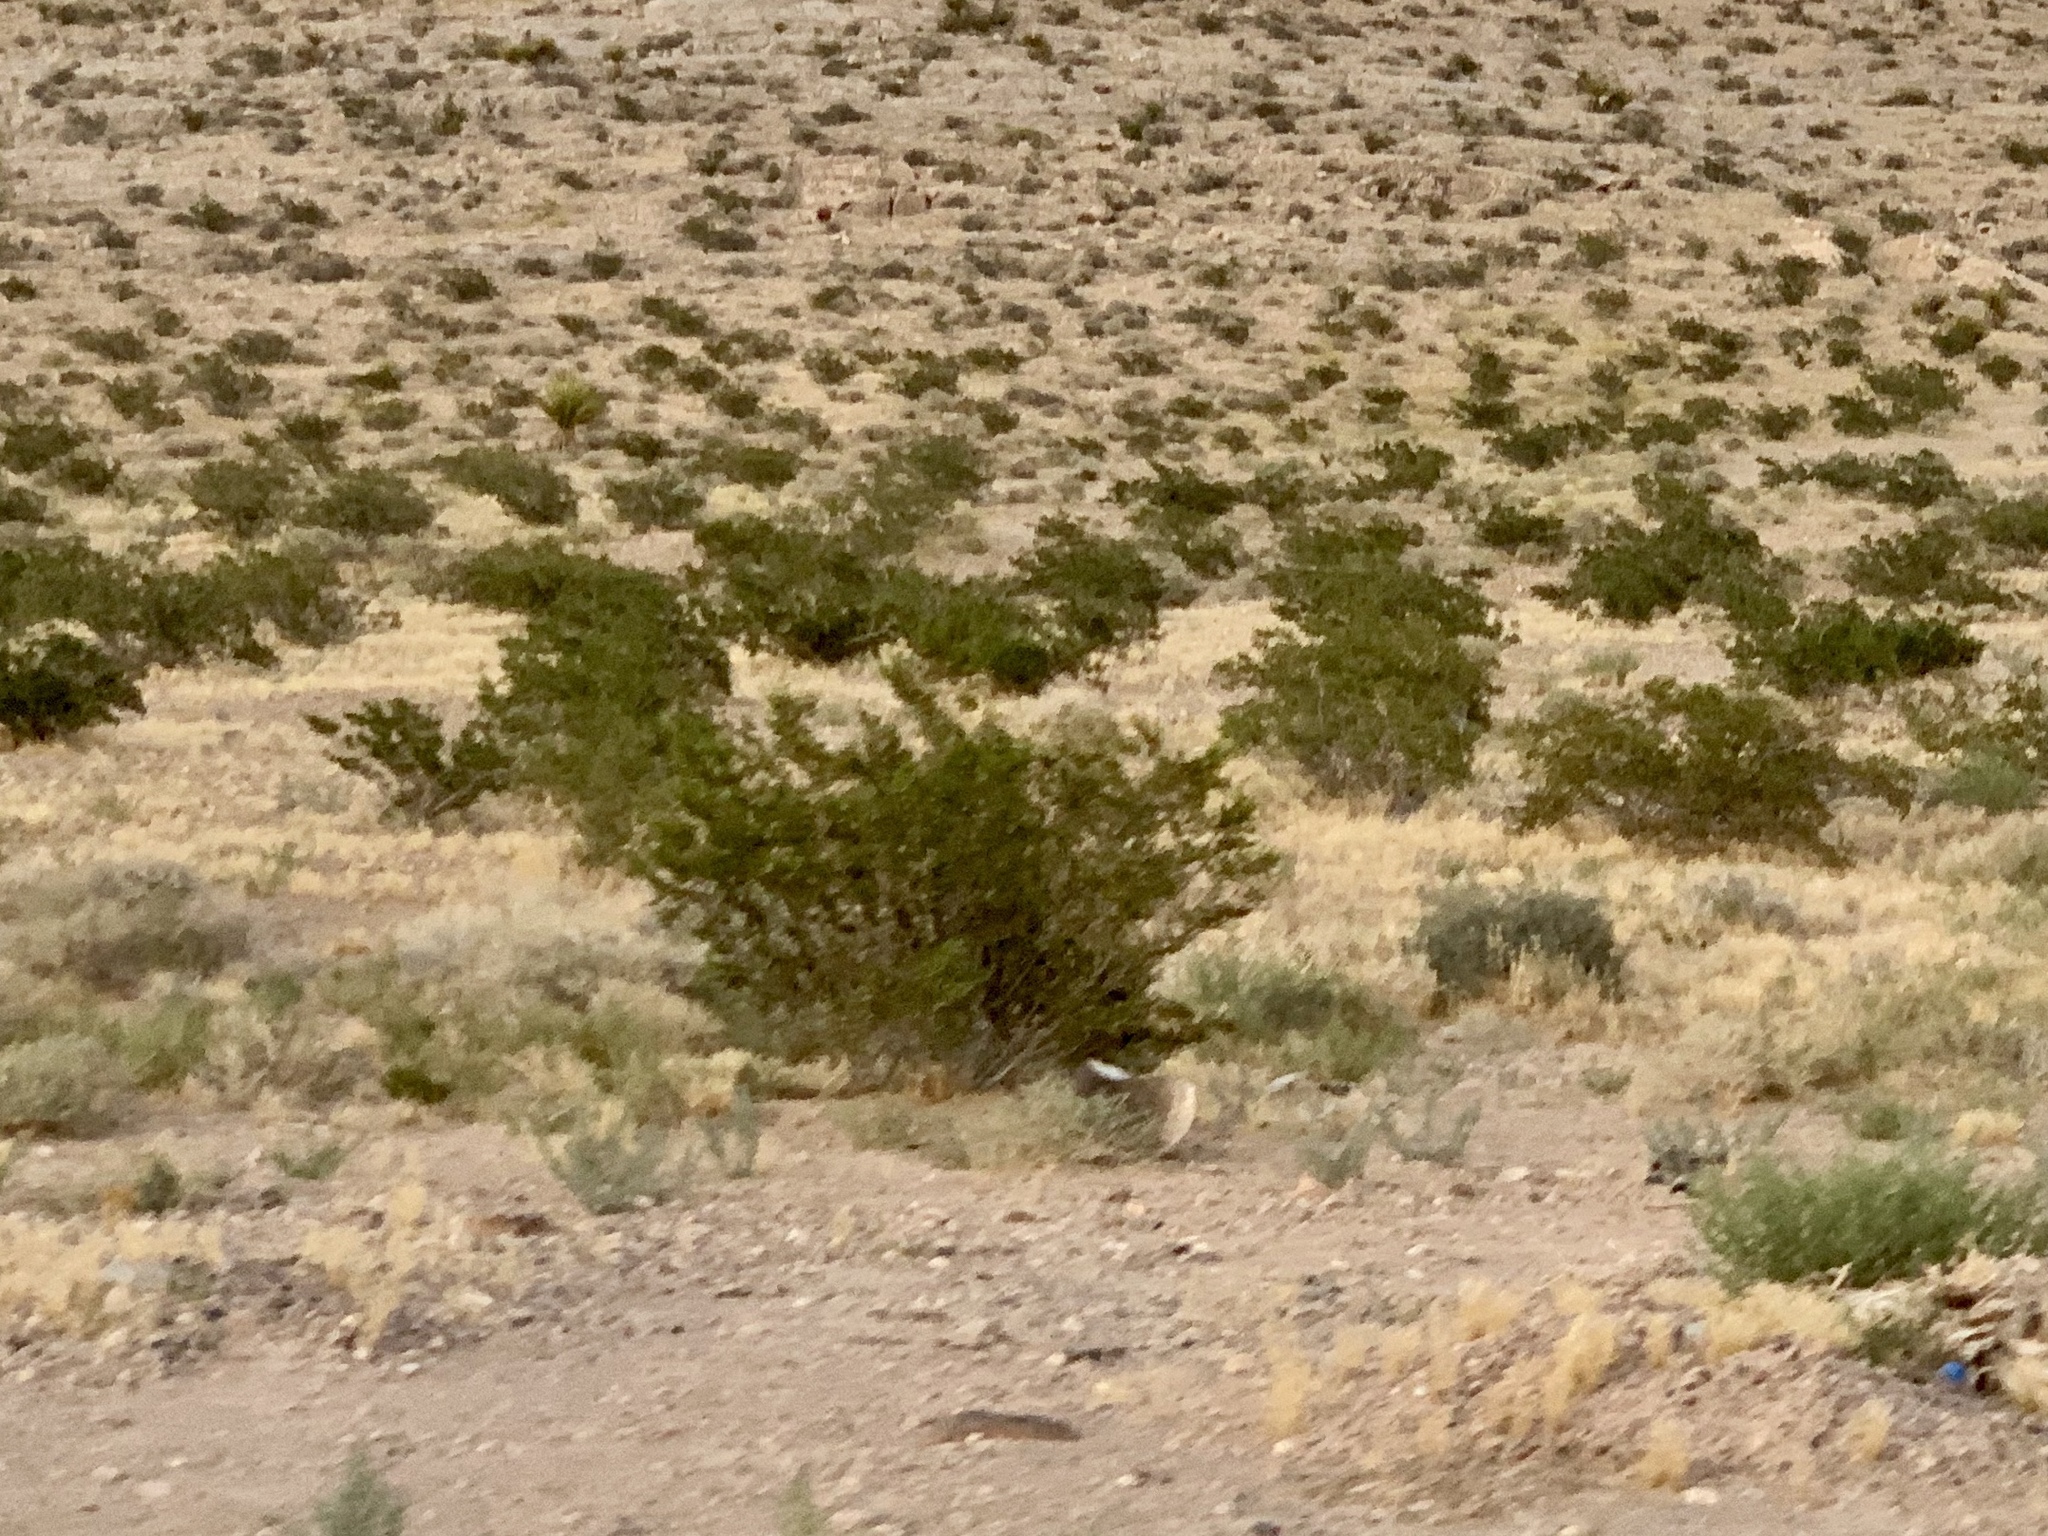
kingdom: Plantae
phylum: Tracheophyta
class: Magnoliopsida
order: Zygophyllales
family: Zygophyllaceae
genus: Larrea
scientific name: Larrea tridentata
